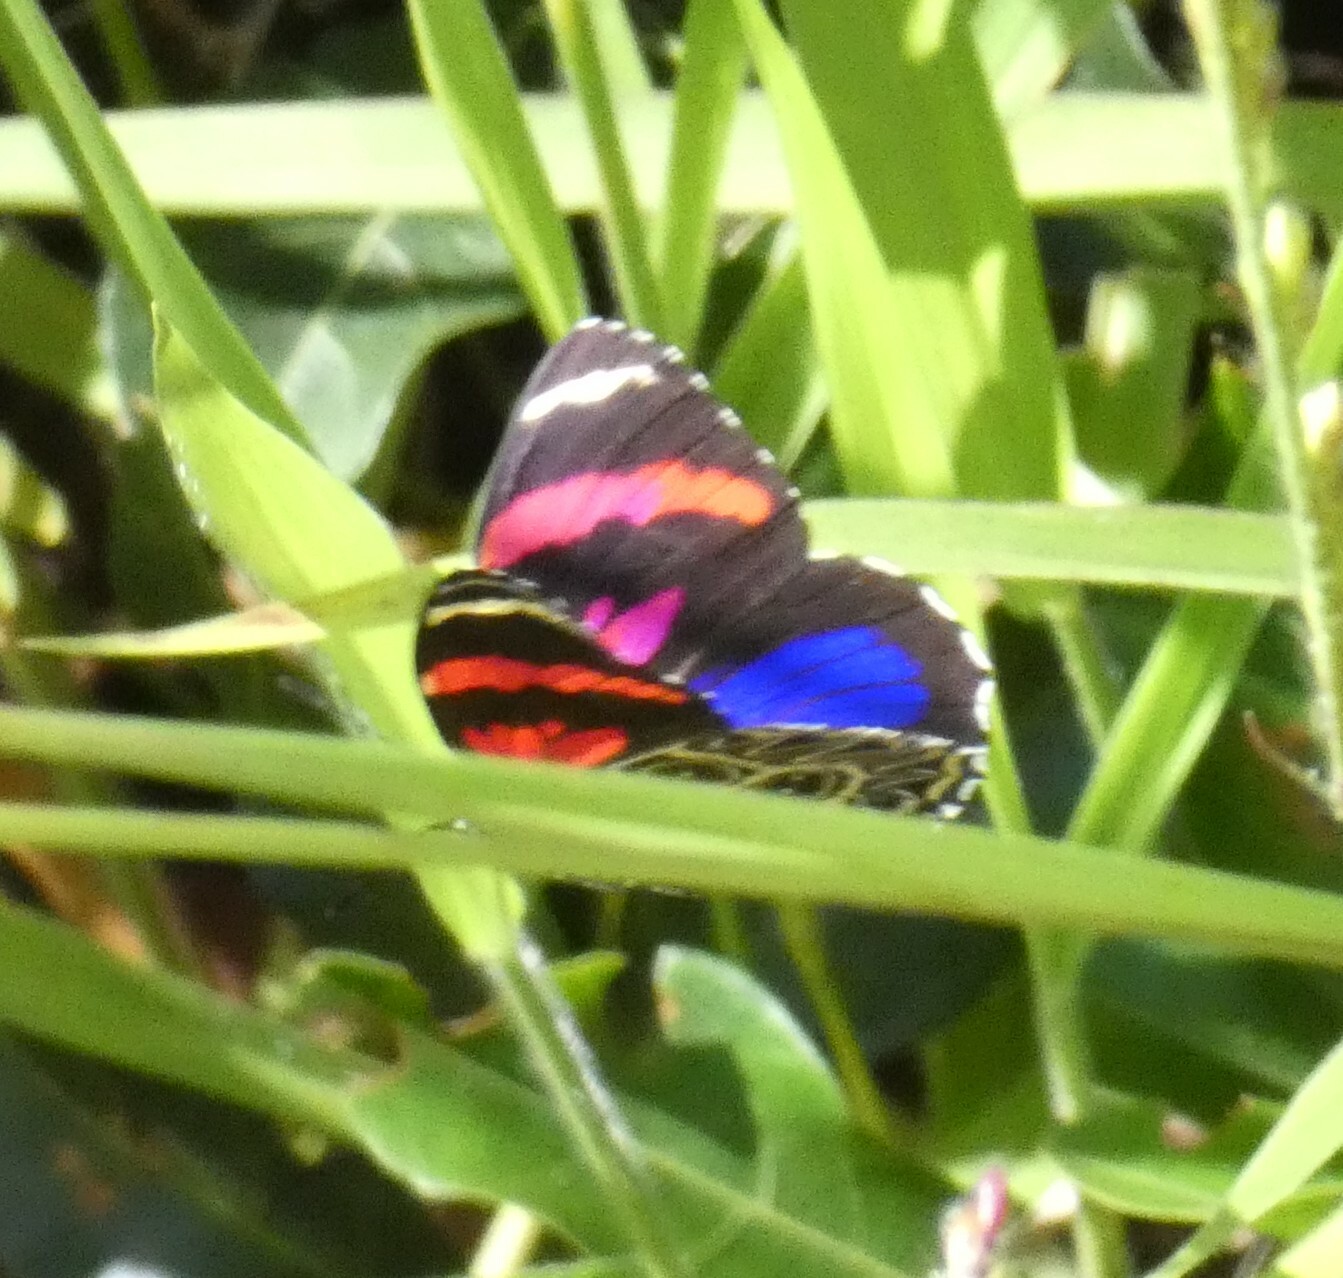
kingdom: Animalia
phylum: Arthropoda
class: Insecta
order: Lepidoptera
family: Nymphalidae
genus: Catagramma
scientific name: Catagramma Callicore sorana
